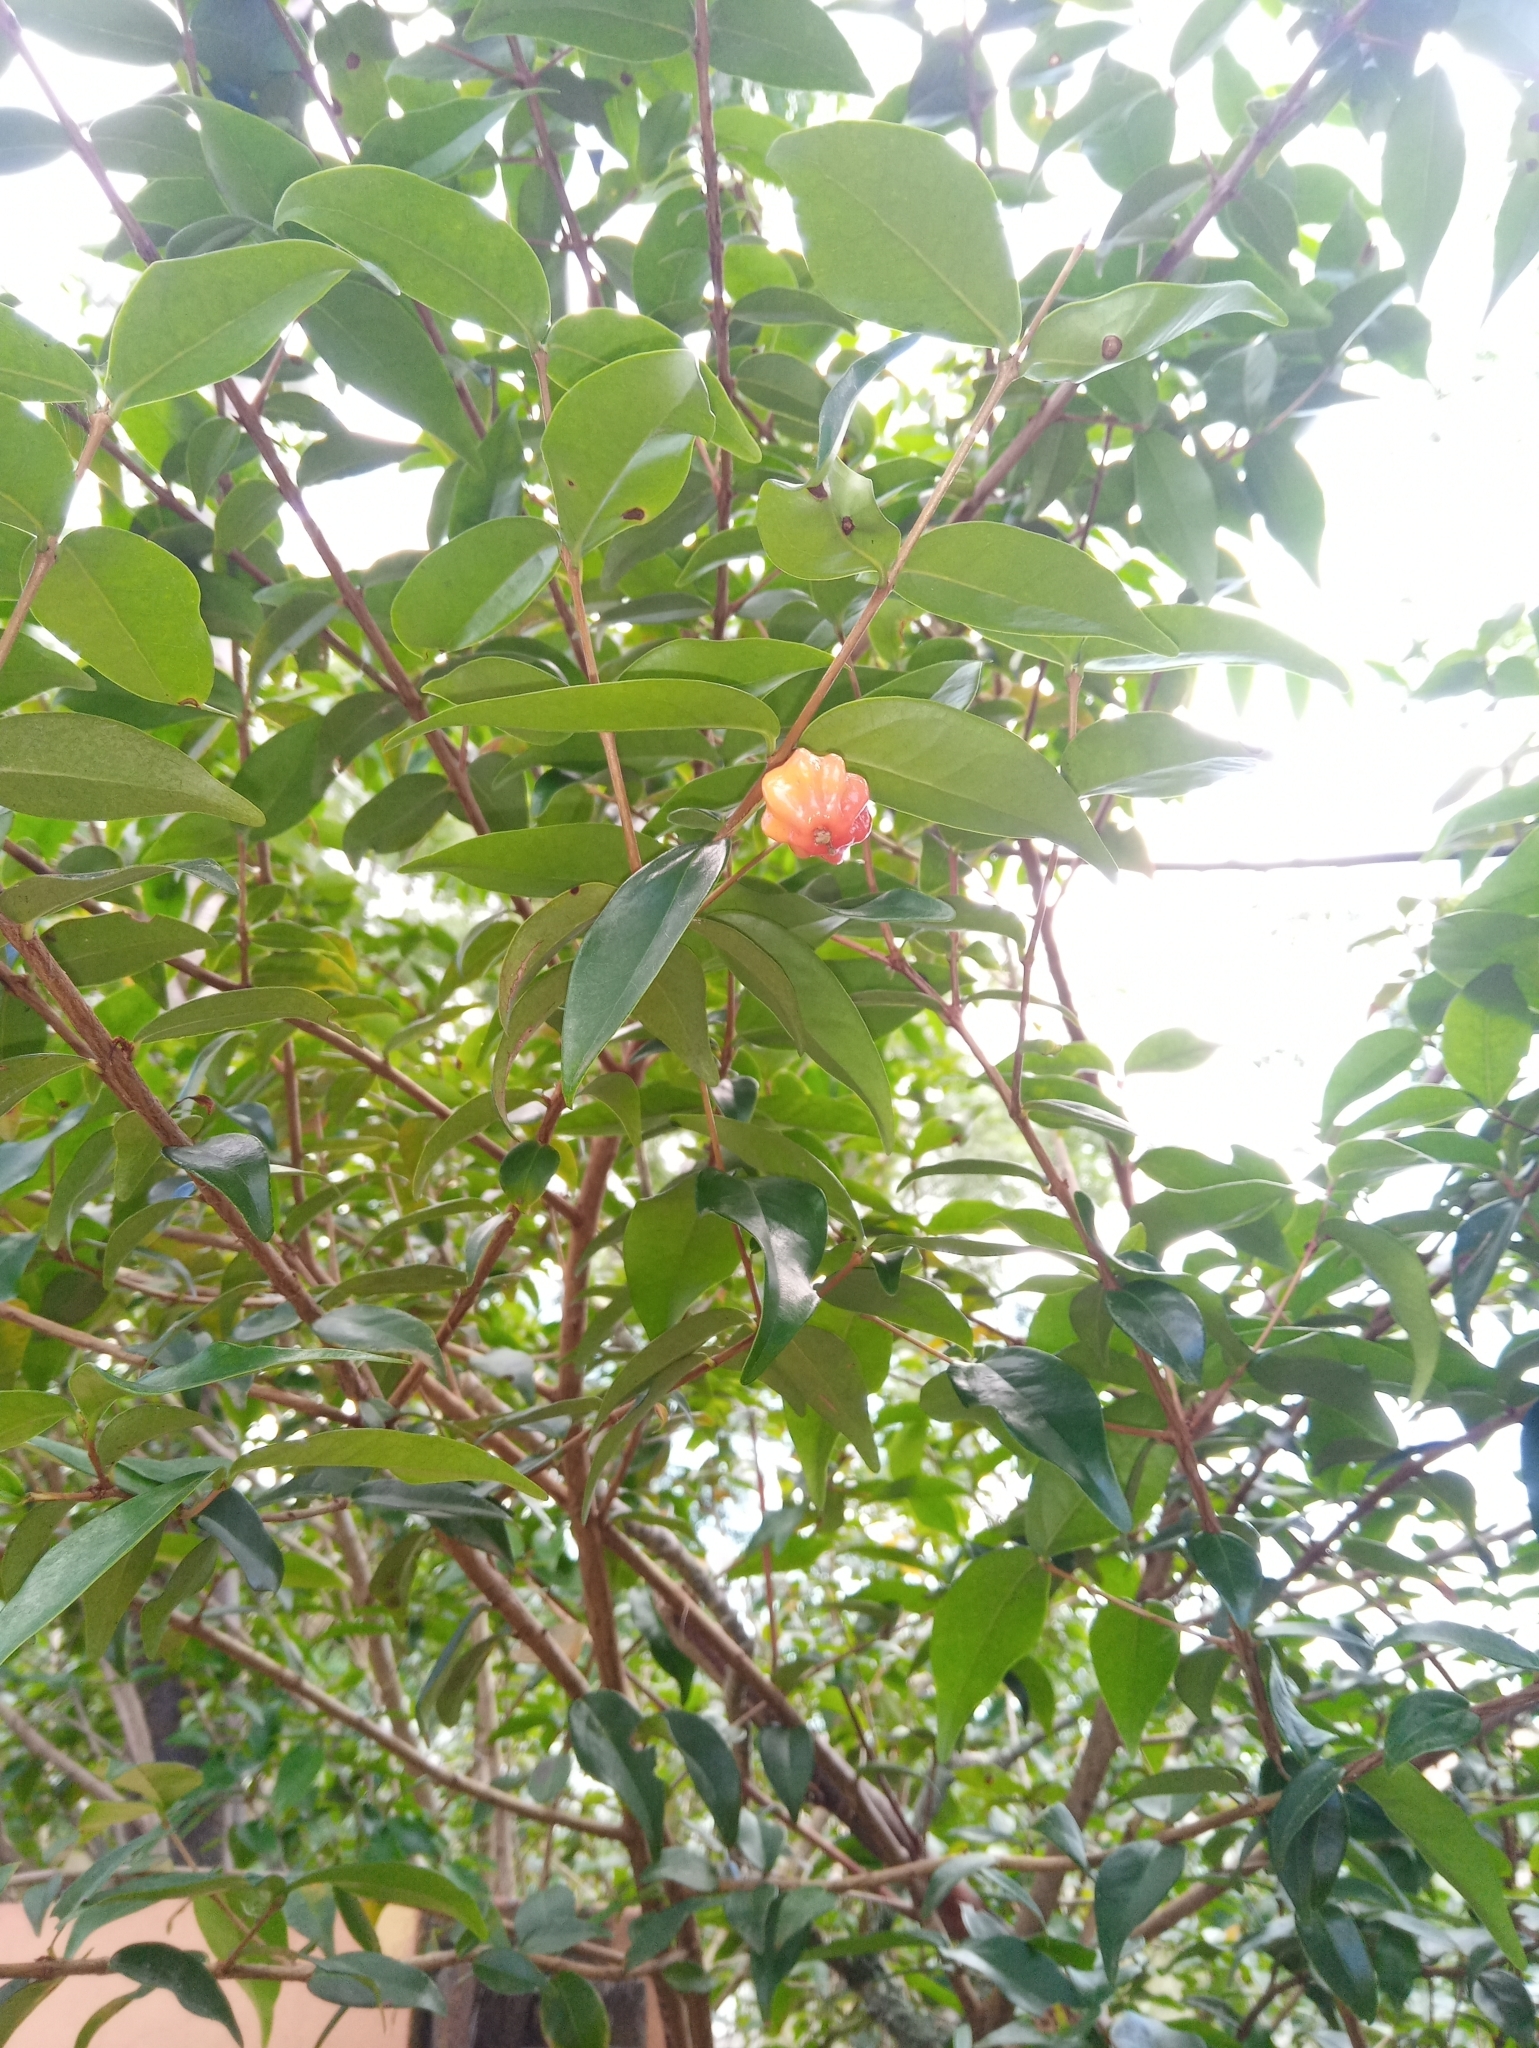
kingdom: Plantae
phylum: Tracheophyta
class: Magnoliopsida
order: Myrtales
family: Myrtaceae
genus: Eugenia
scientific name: Eugenia uniflora
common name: Surinam cherry
